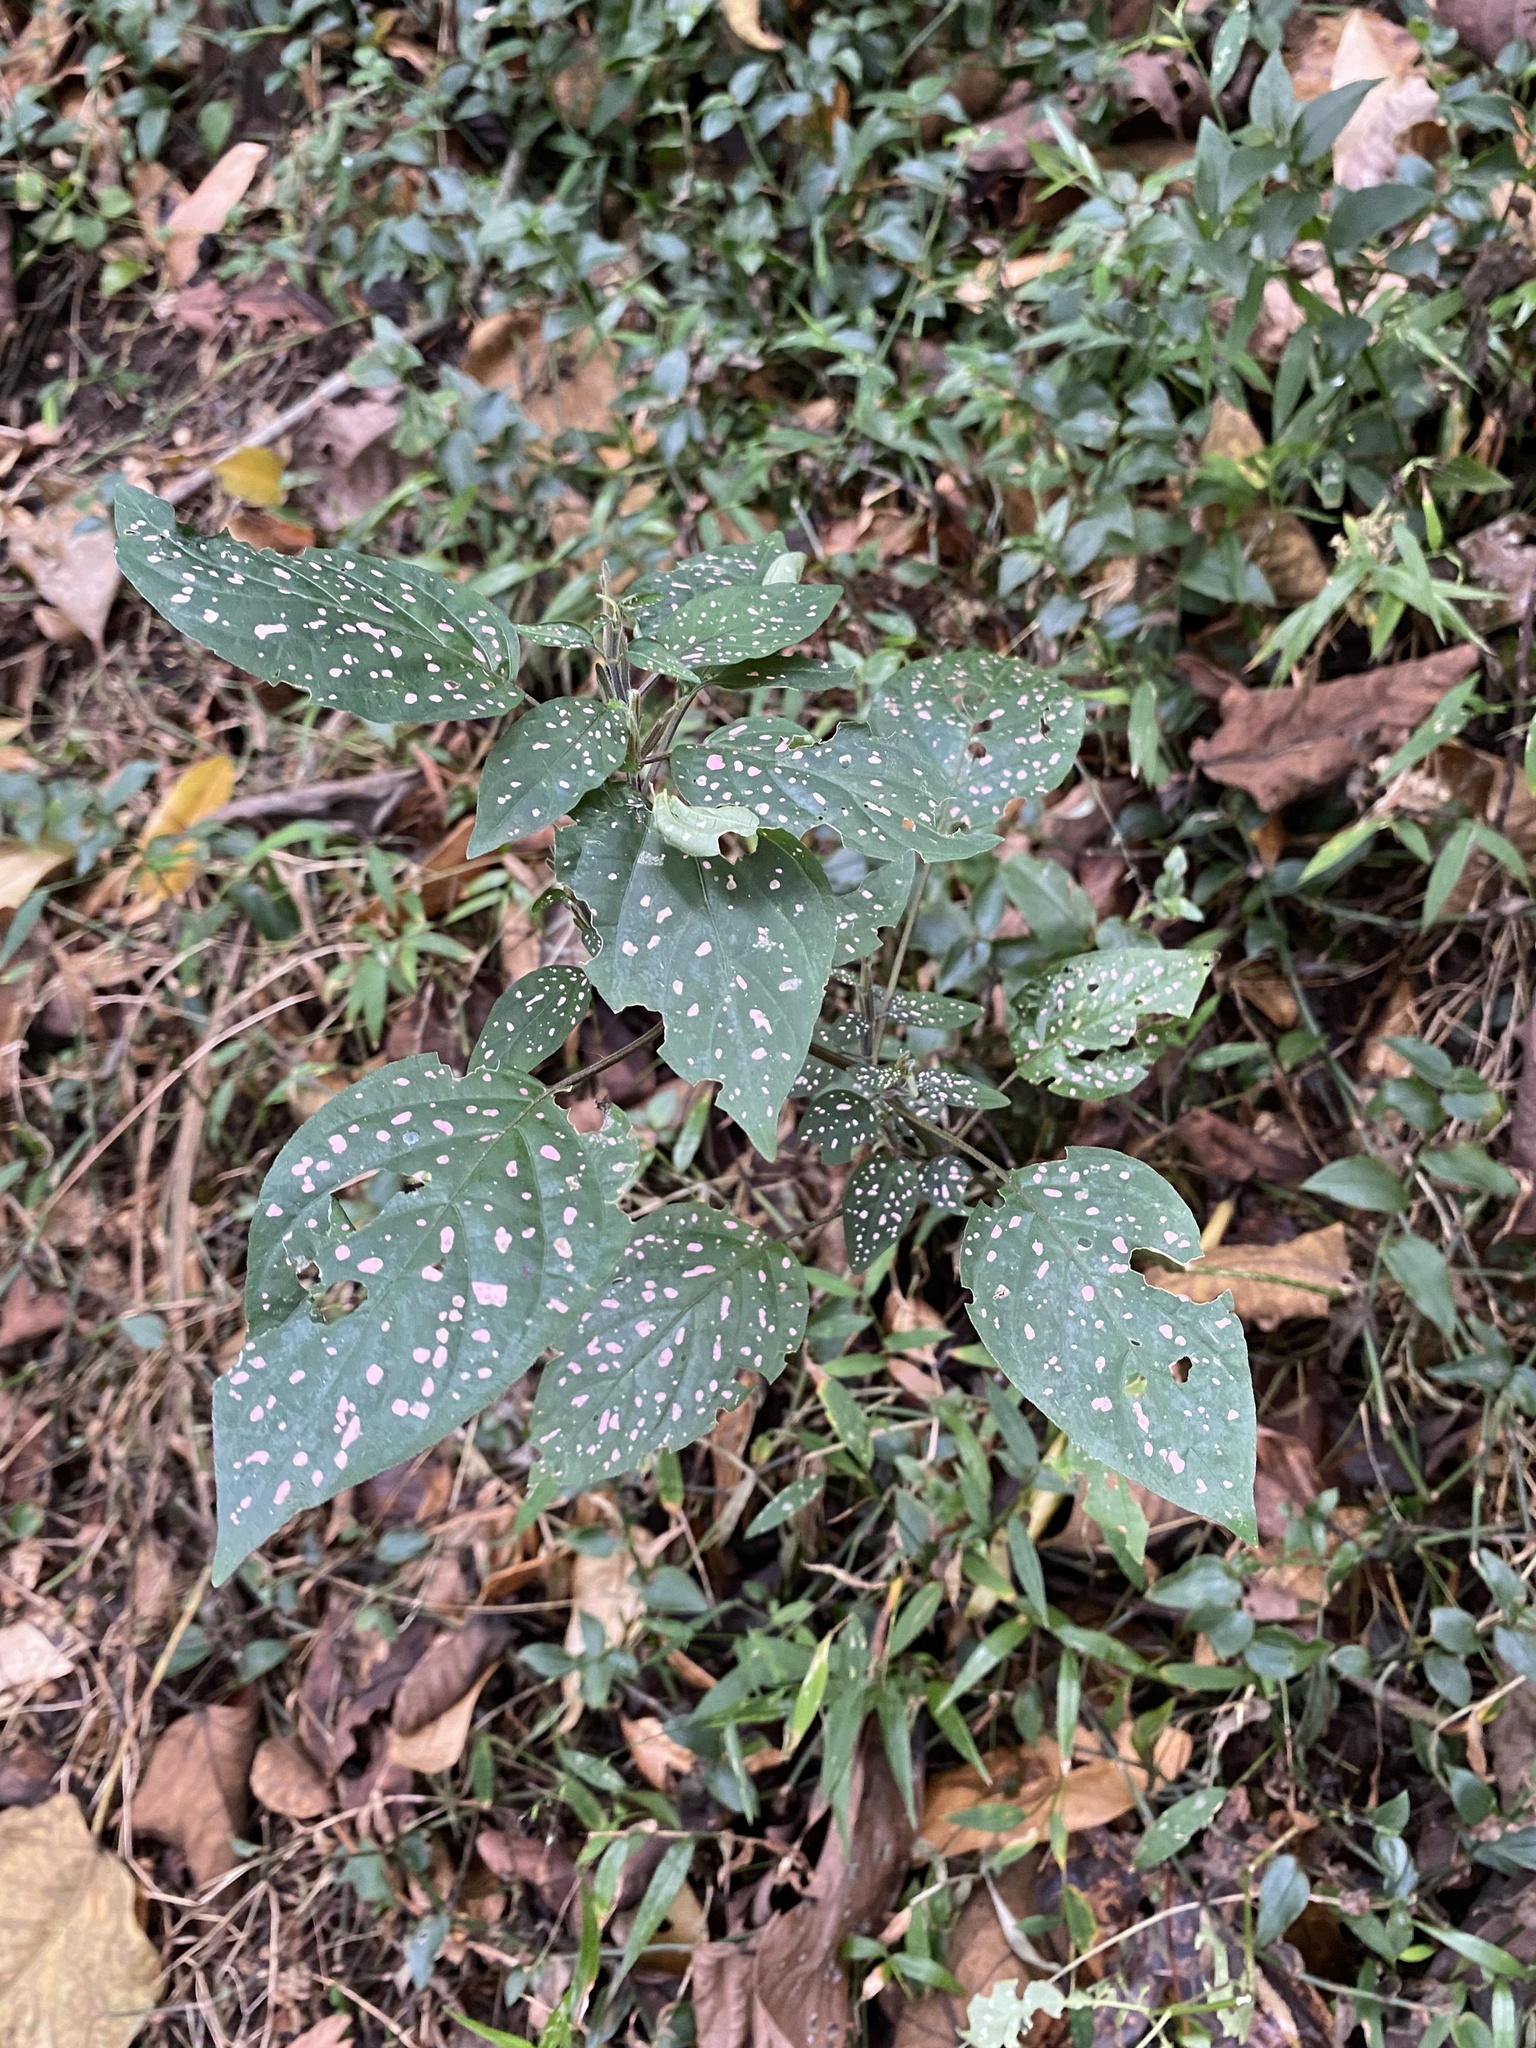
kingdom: Plantae
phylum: Tracheophyta
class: Magnoliopsida
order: Lamiales
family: Acanthaceae
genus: Hypoestes
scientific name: Hypoestes phyllostachya
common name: Polkadot-plant
